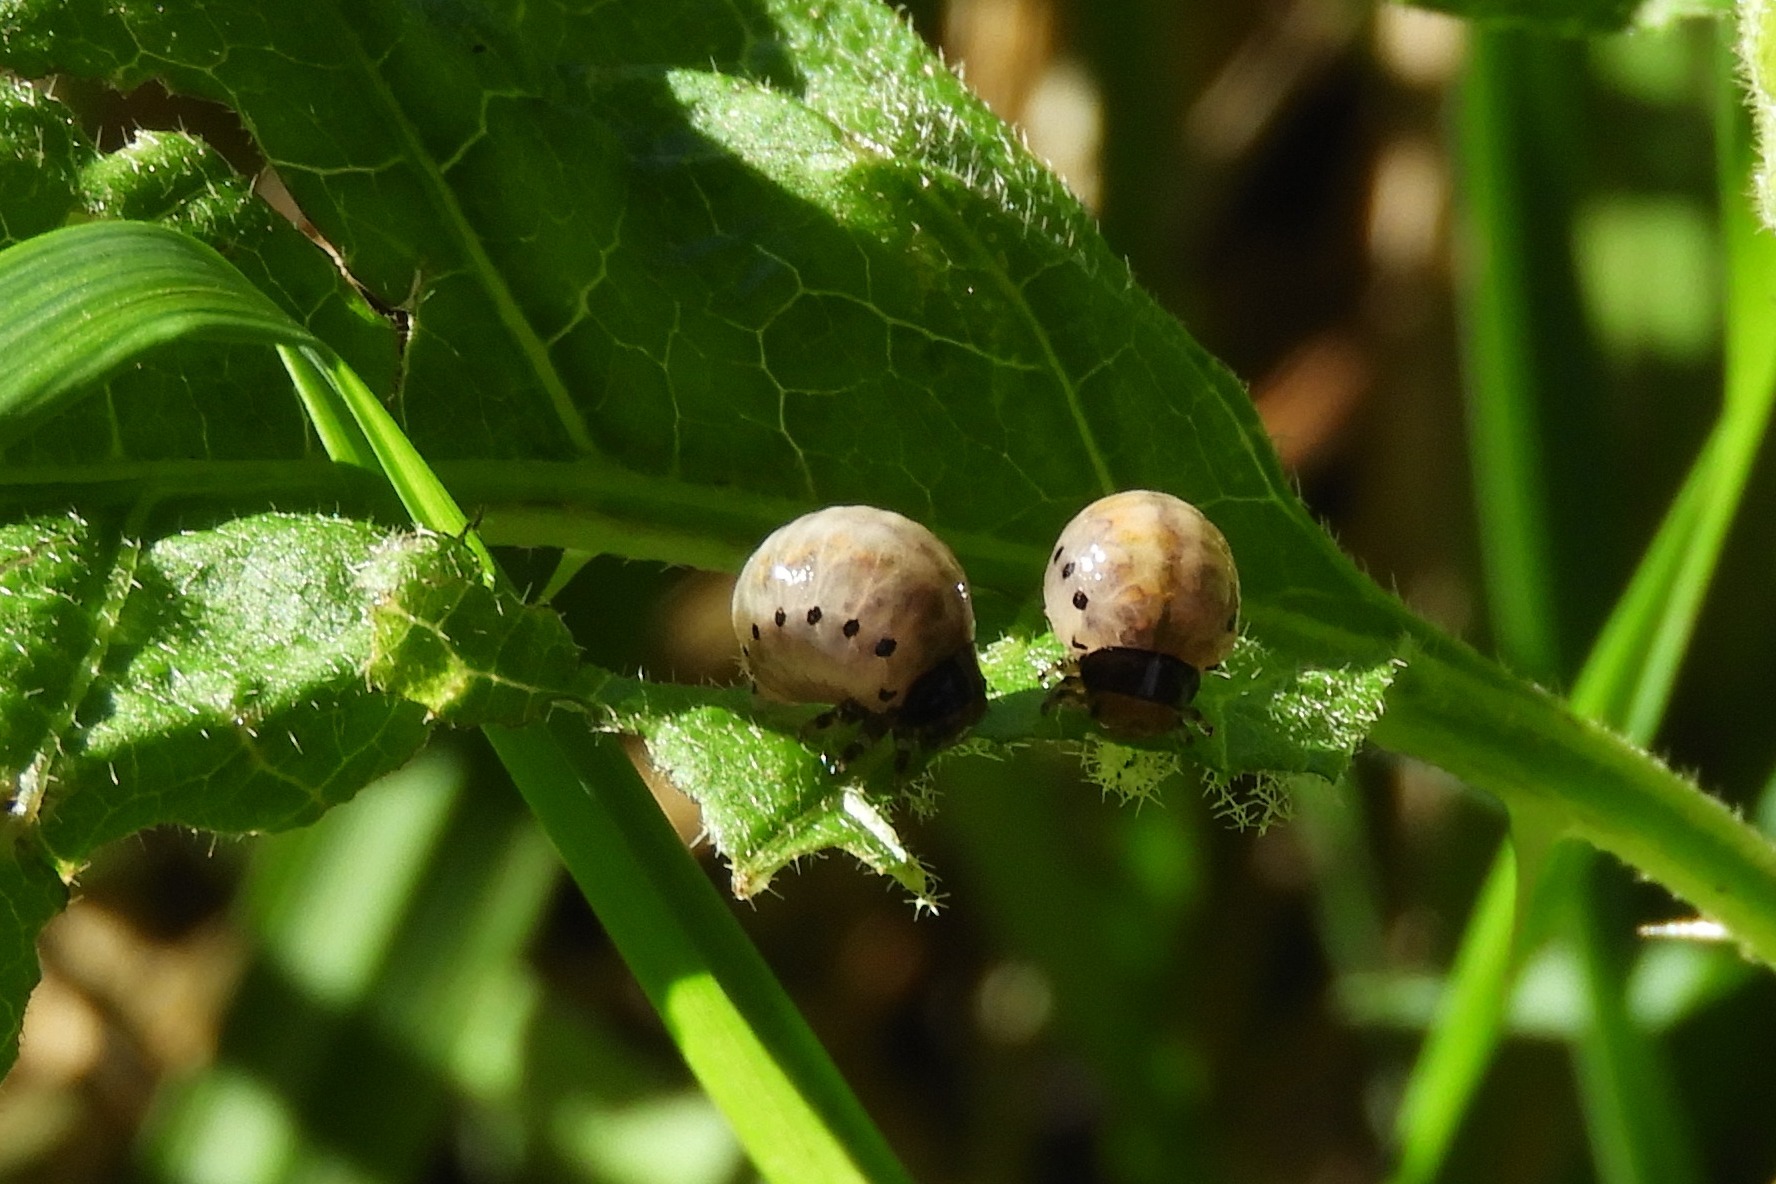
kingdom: Animalia
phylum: Arthropoda
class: Insecta
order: Coleoptera
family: Chrysomelidae
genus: Leptinotarsa
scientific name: Leptinotarsa juncta
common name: False potato beetle
